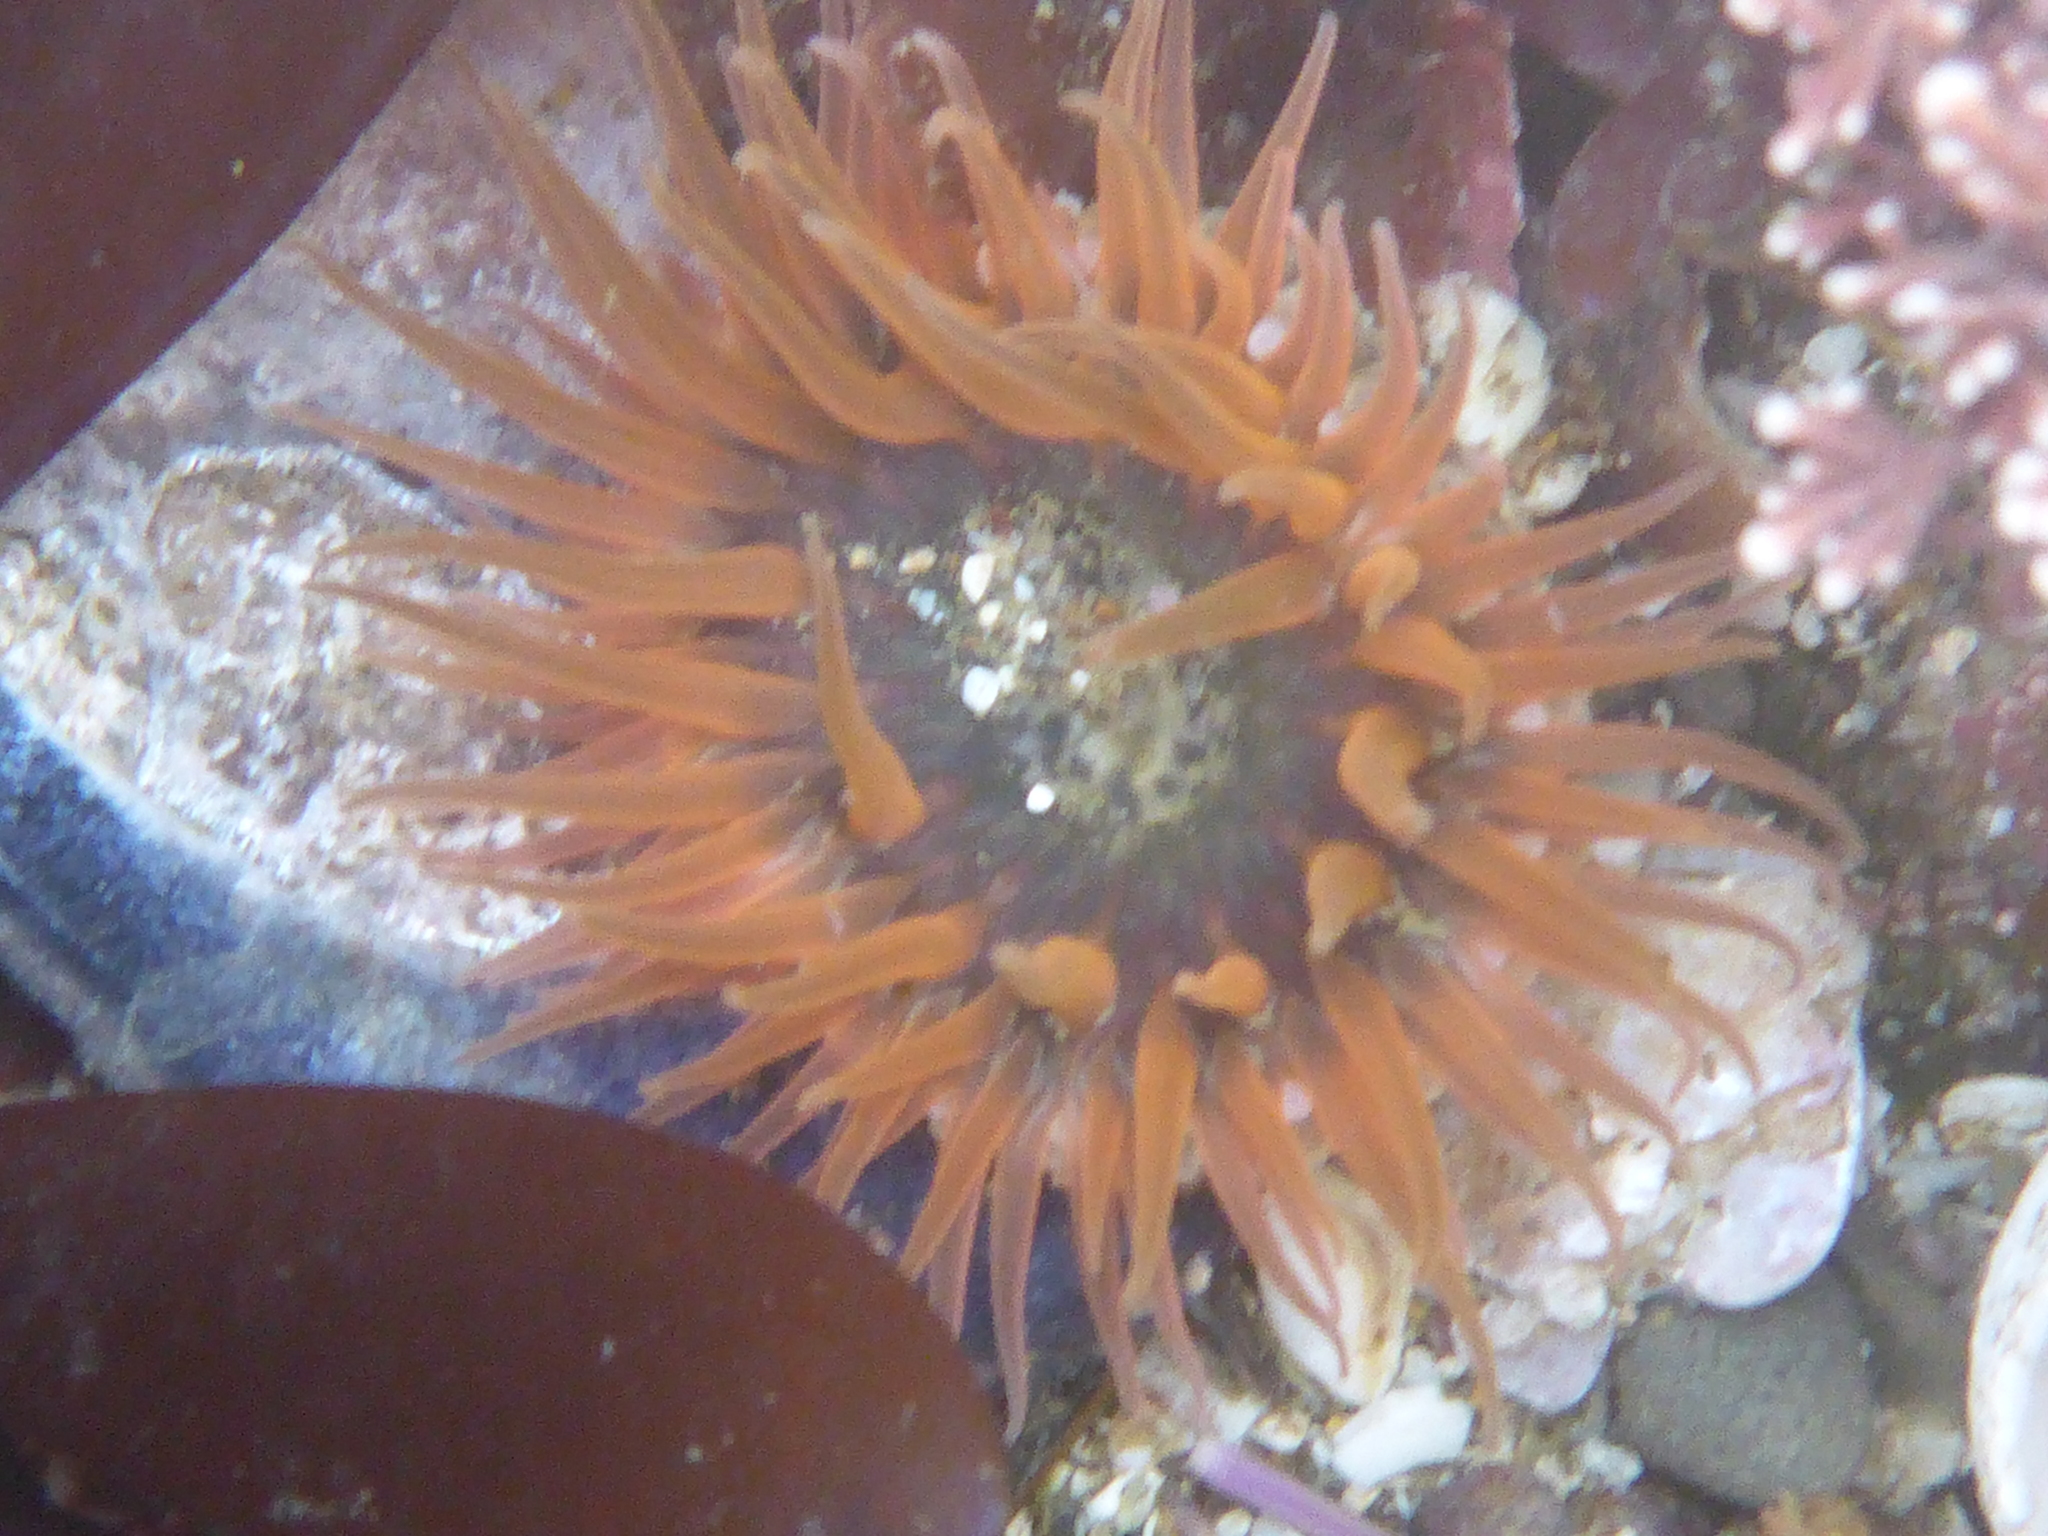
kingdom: Animalia
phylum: Cnidaria
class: Anthozoa
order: Actiniaria
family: Actiniidae
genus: Anthopleura
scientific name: Anthopleura artemisia
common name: Buried sea anemone
